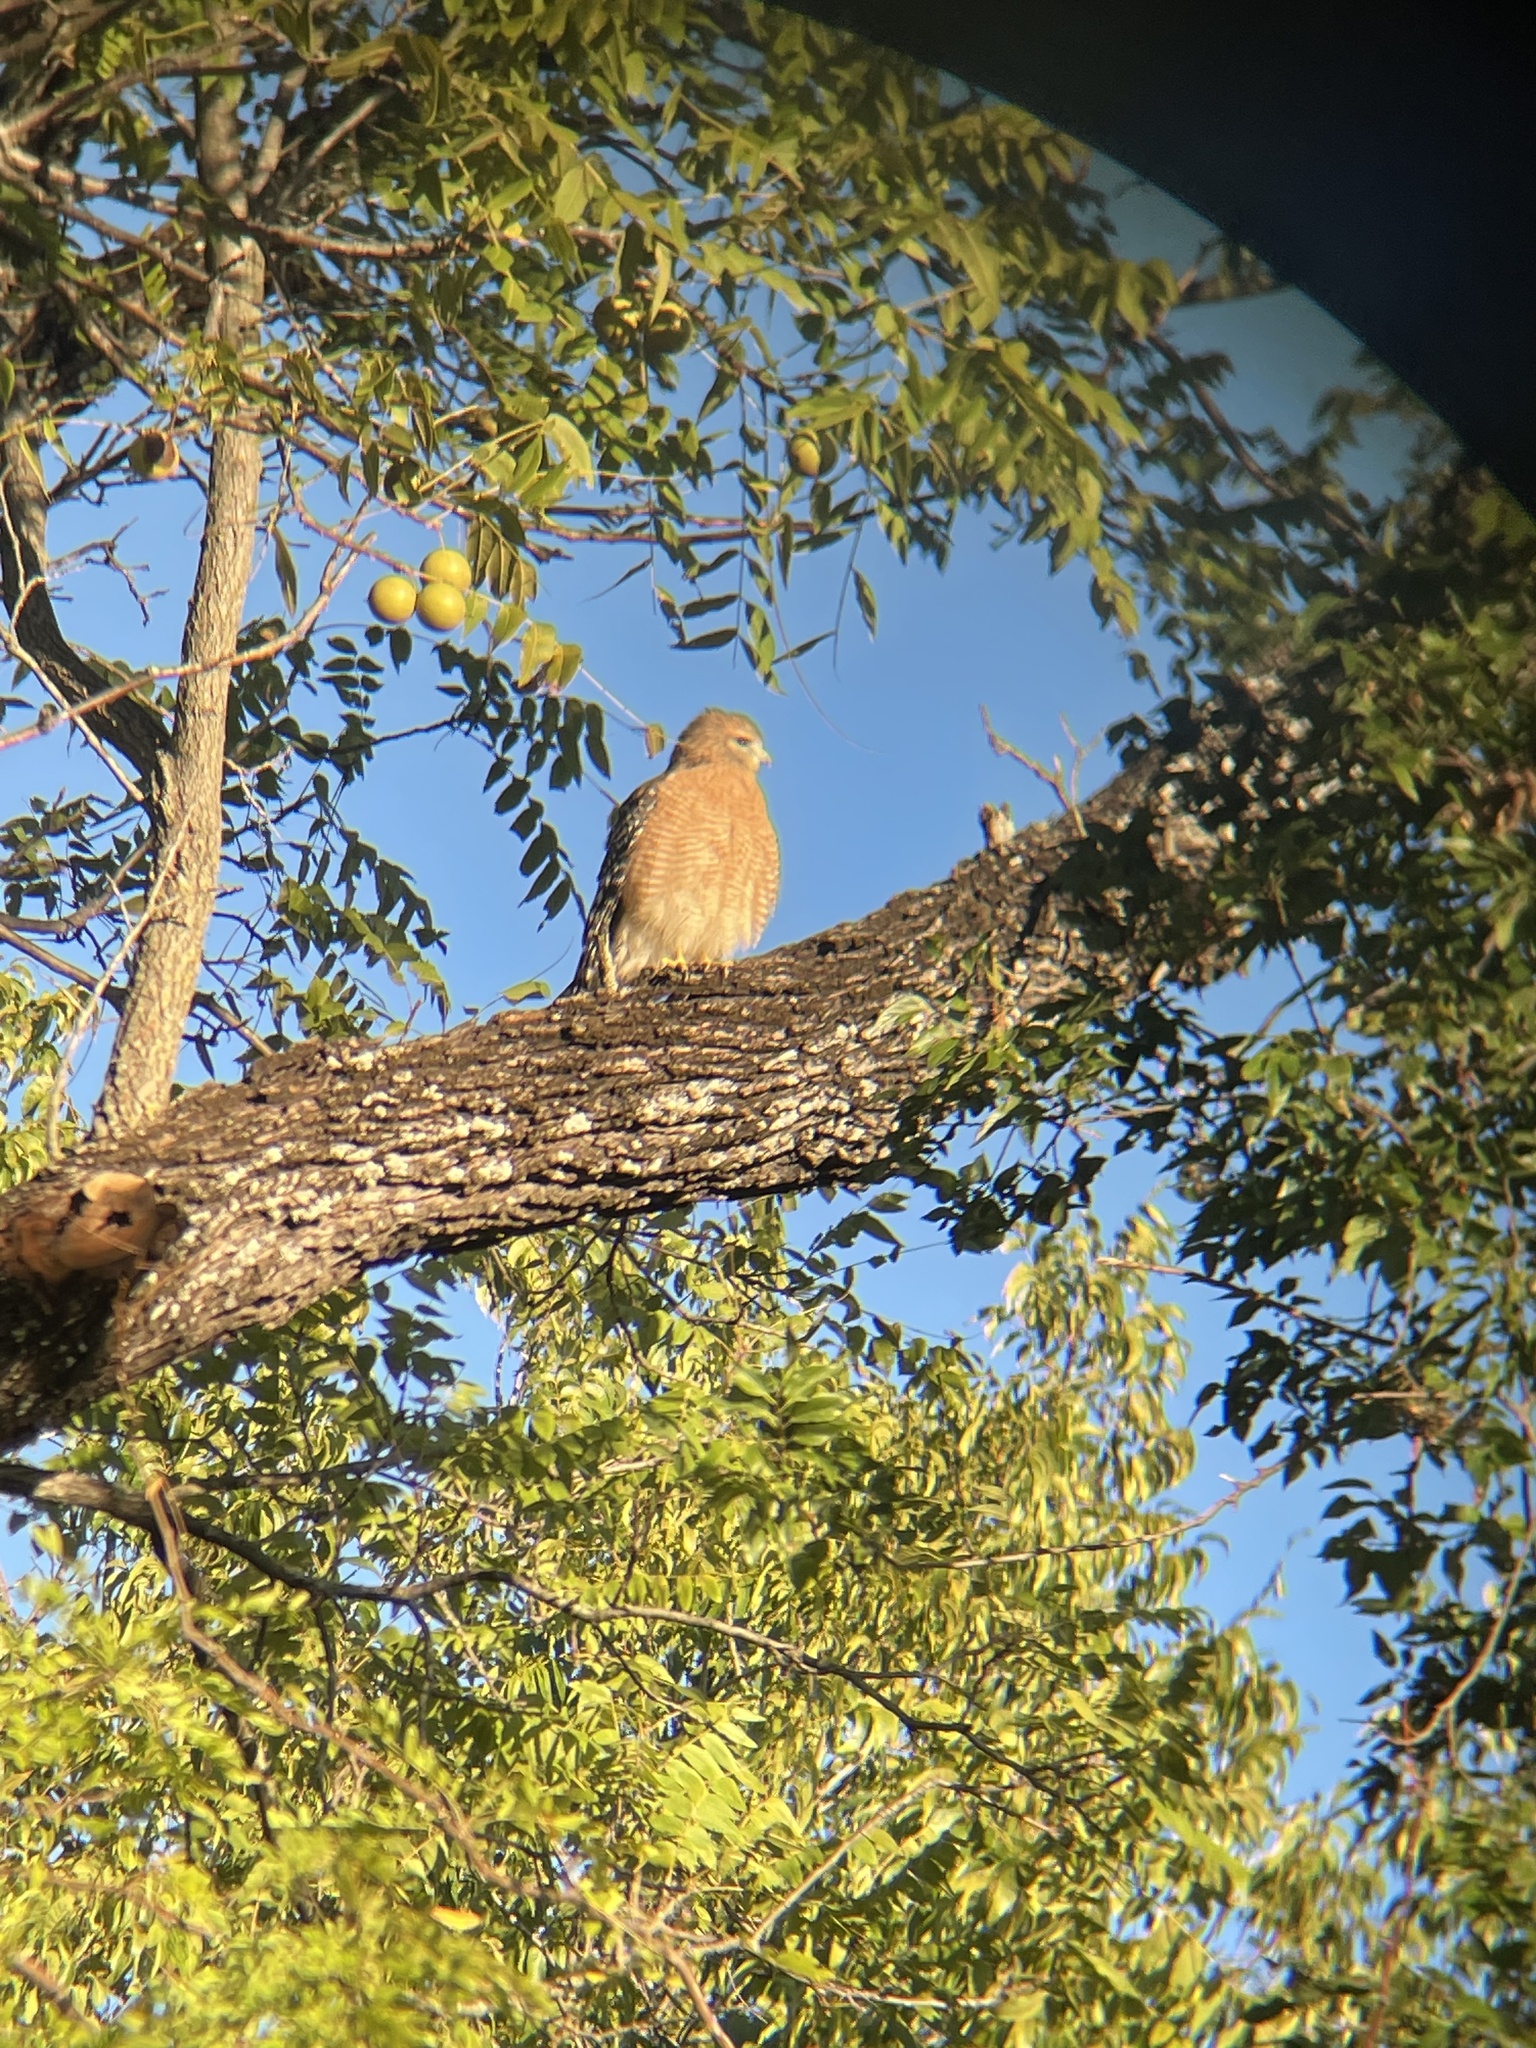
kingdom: Animalia
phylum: Chordata
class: Aves
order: Accipitriformes
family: Accipitridae
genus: Buteo
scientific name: Buteo lineatus
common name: Red-shouldered hawk
